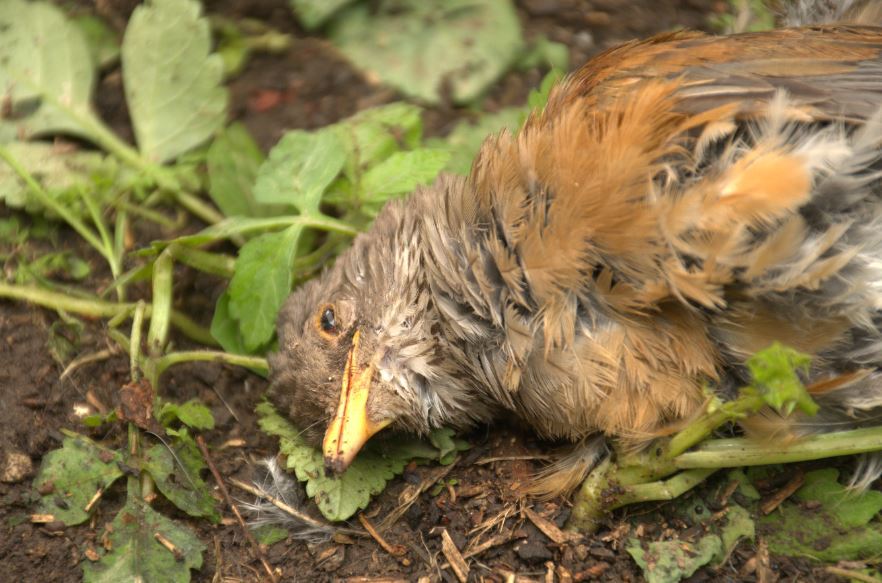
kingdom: Animalia
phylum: Chordata
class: Aves
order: Passeriformes
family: Turdidae
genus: Turdus
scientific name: Turdus rufopalliatus
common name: Rufous-backed robin
